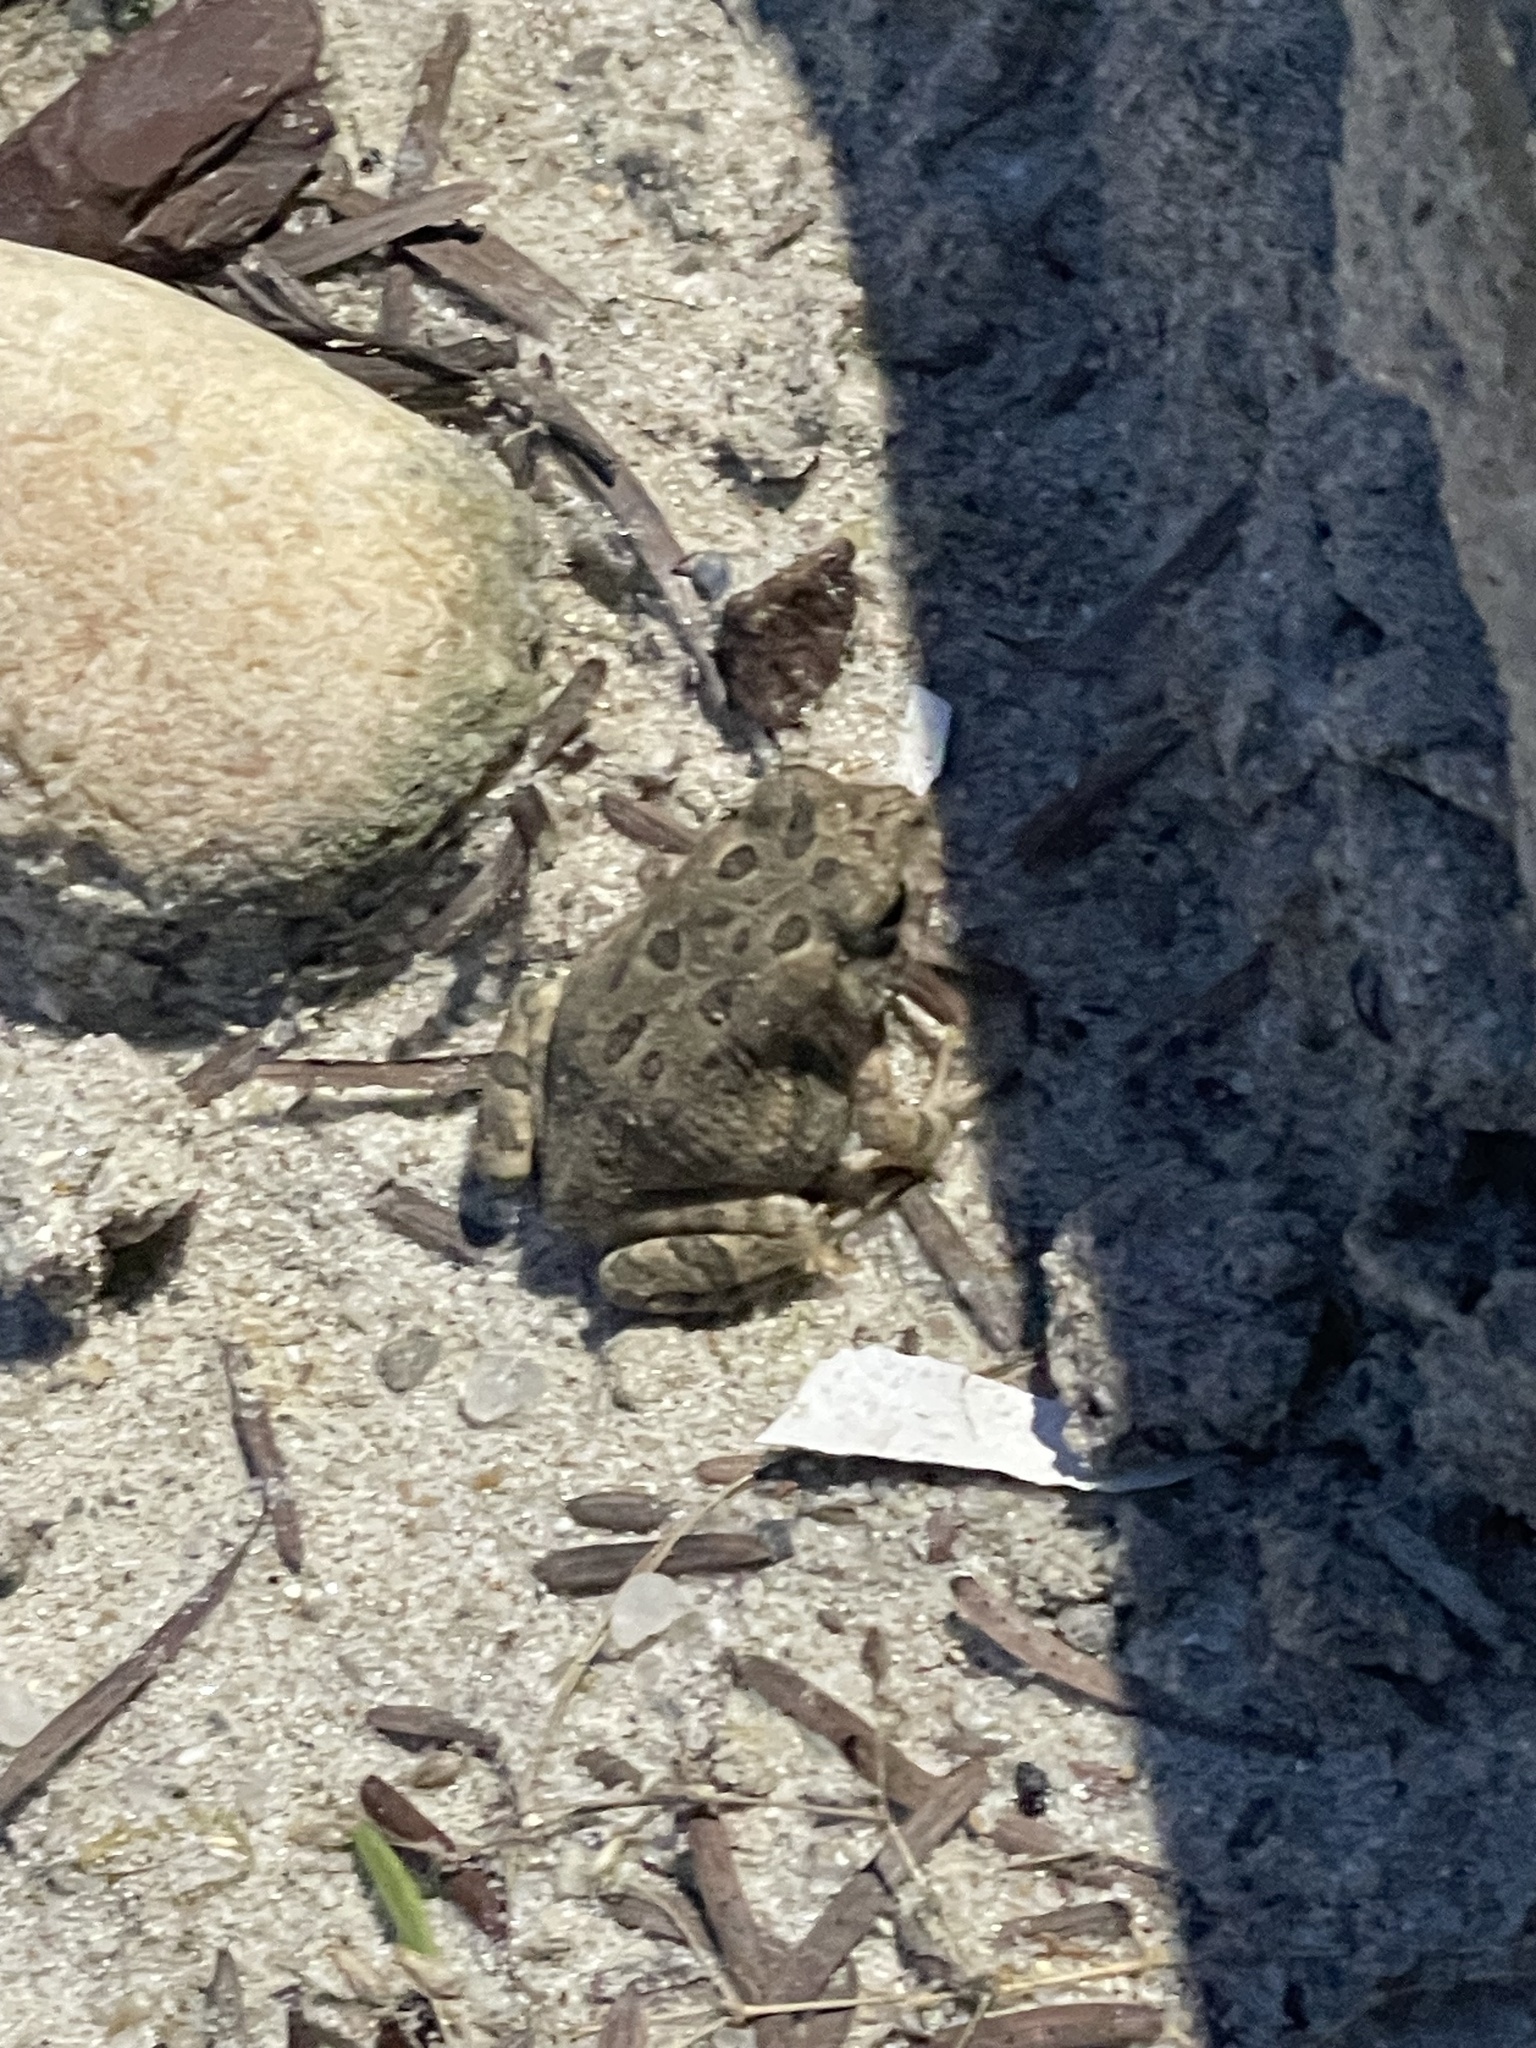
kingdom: Animalia
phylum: Chordata
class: Amphibia
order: Anura
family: Bufonidae
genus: Anaxyrus
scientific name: Anaxyrus fowleri
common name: Fowler's toad
